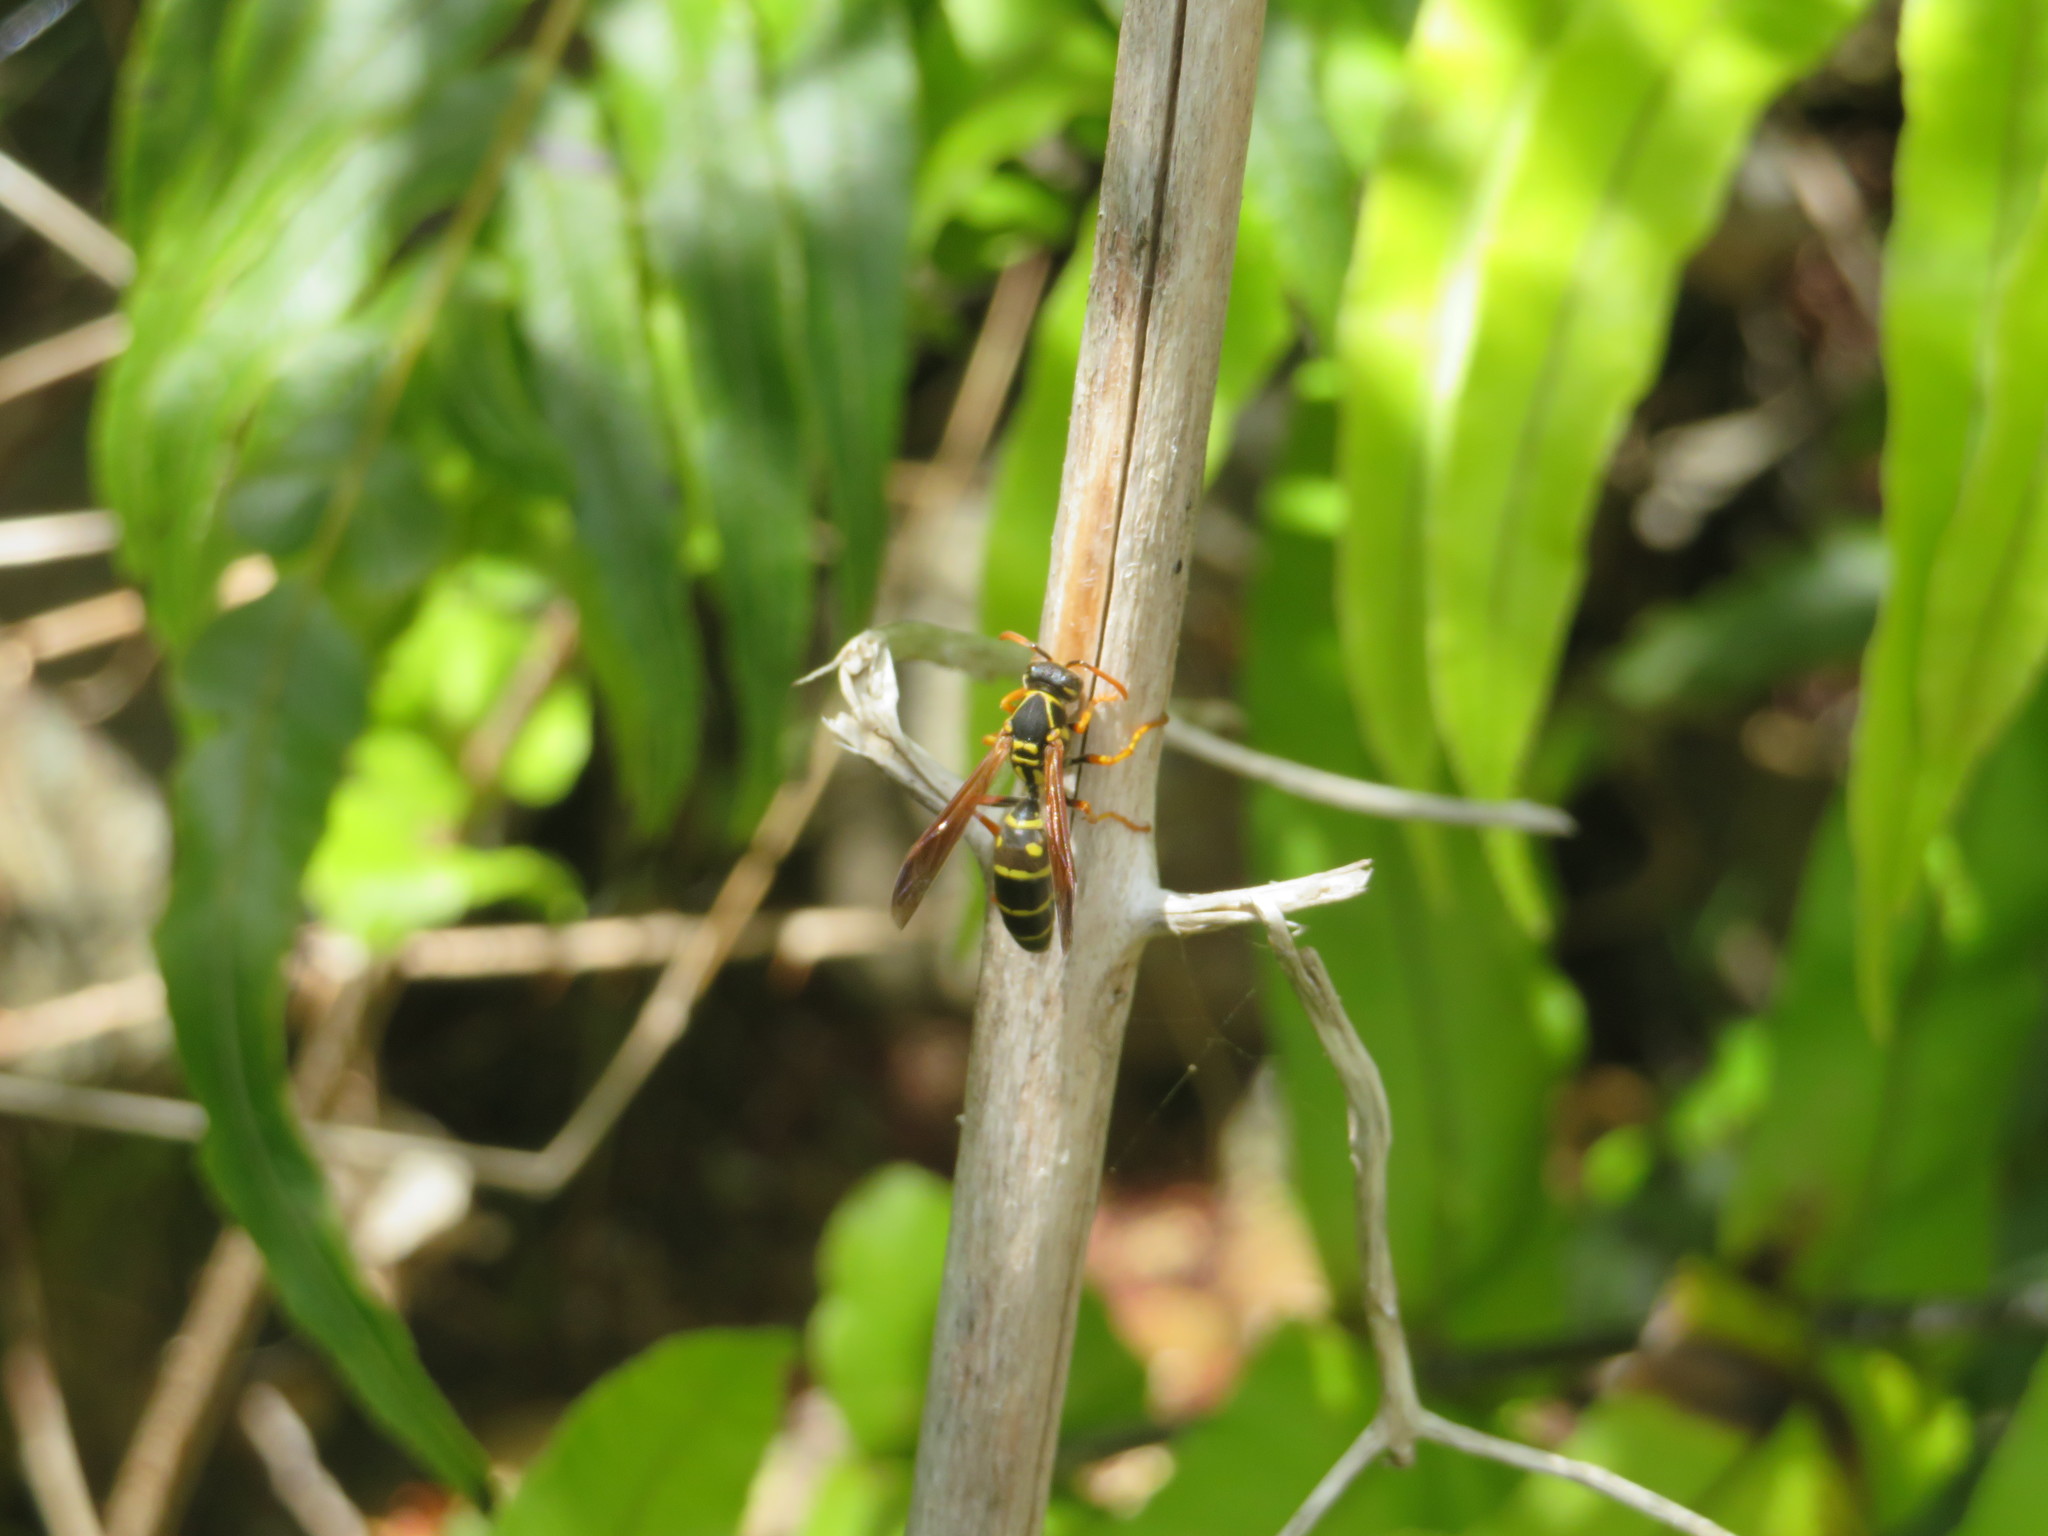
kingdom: Animalia
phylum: Arthropoda
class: Insecta
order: Hymenoptera
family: Eumenidae
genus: Polistes
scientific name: Polistes chinensis
